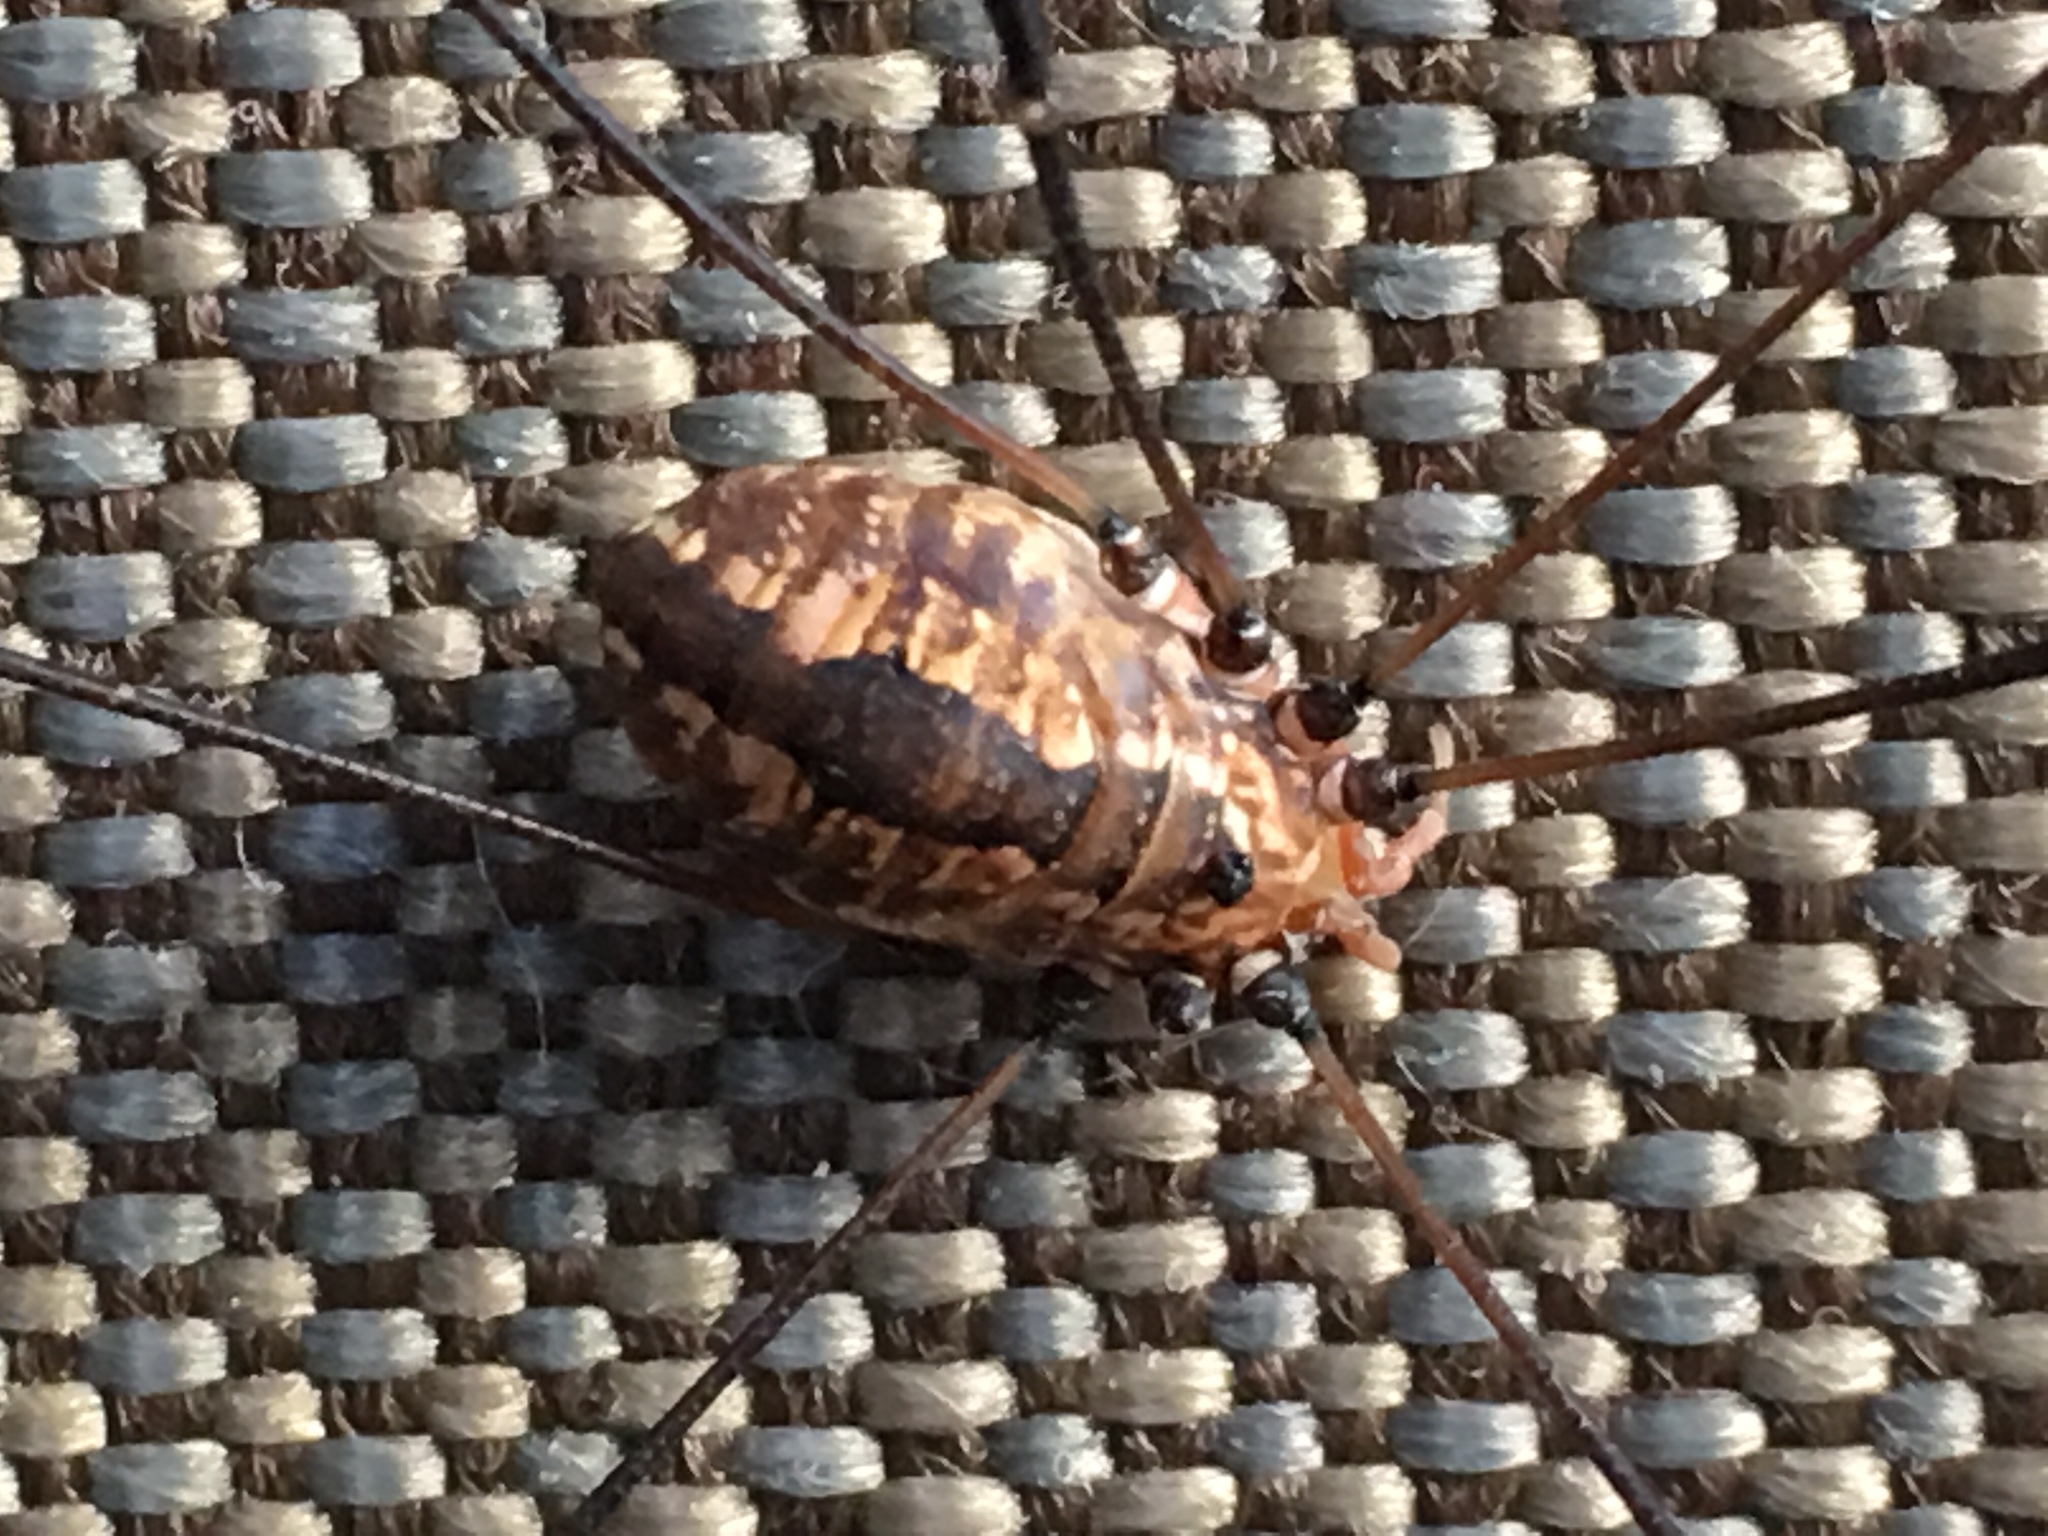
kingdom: Animalia
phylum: Arthropoda
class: Arachnida
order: Opiliones
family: Sclerosomatidae
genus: Leiobunum
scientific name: Leiobunum vittatum
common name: Eastern harvestman
